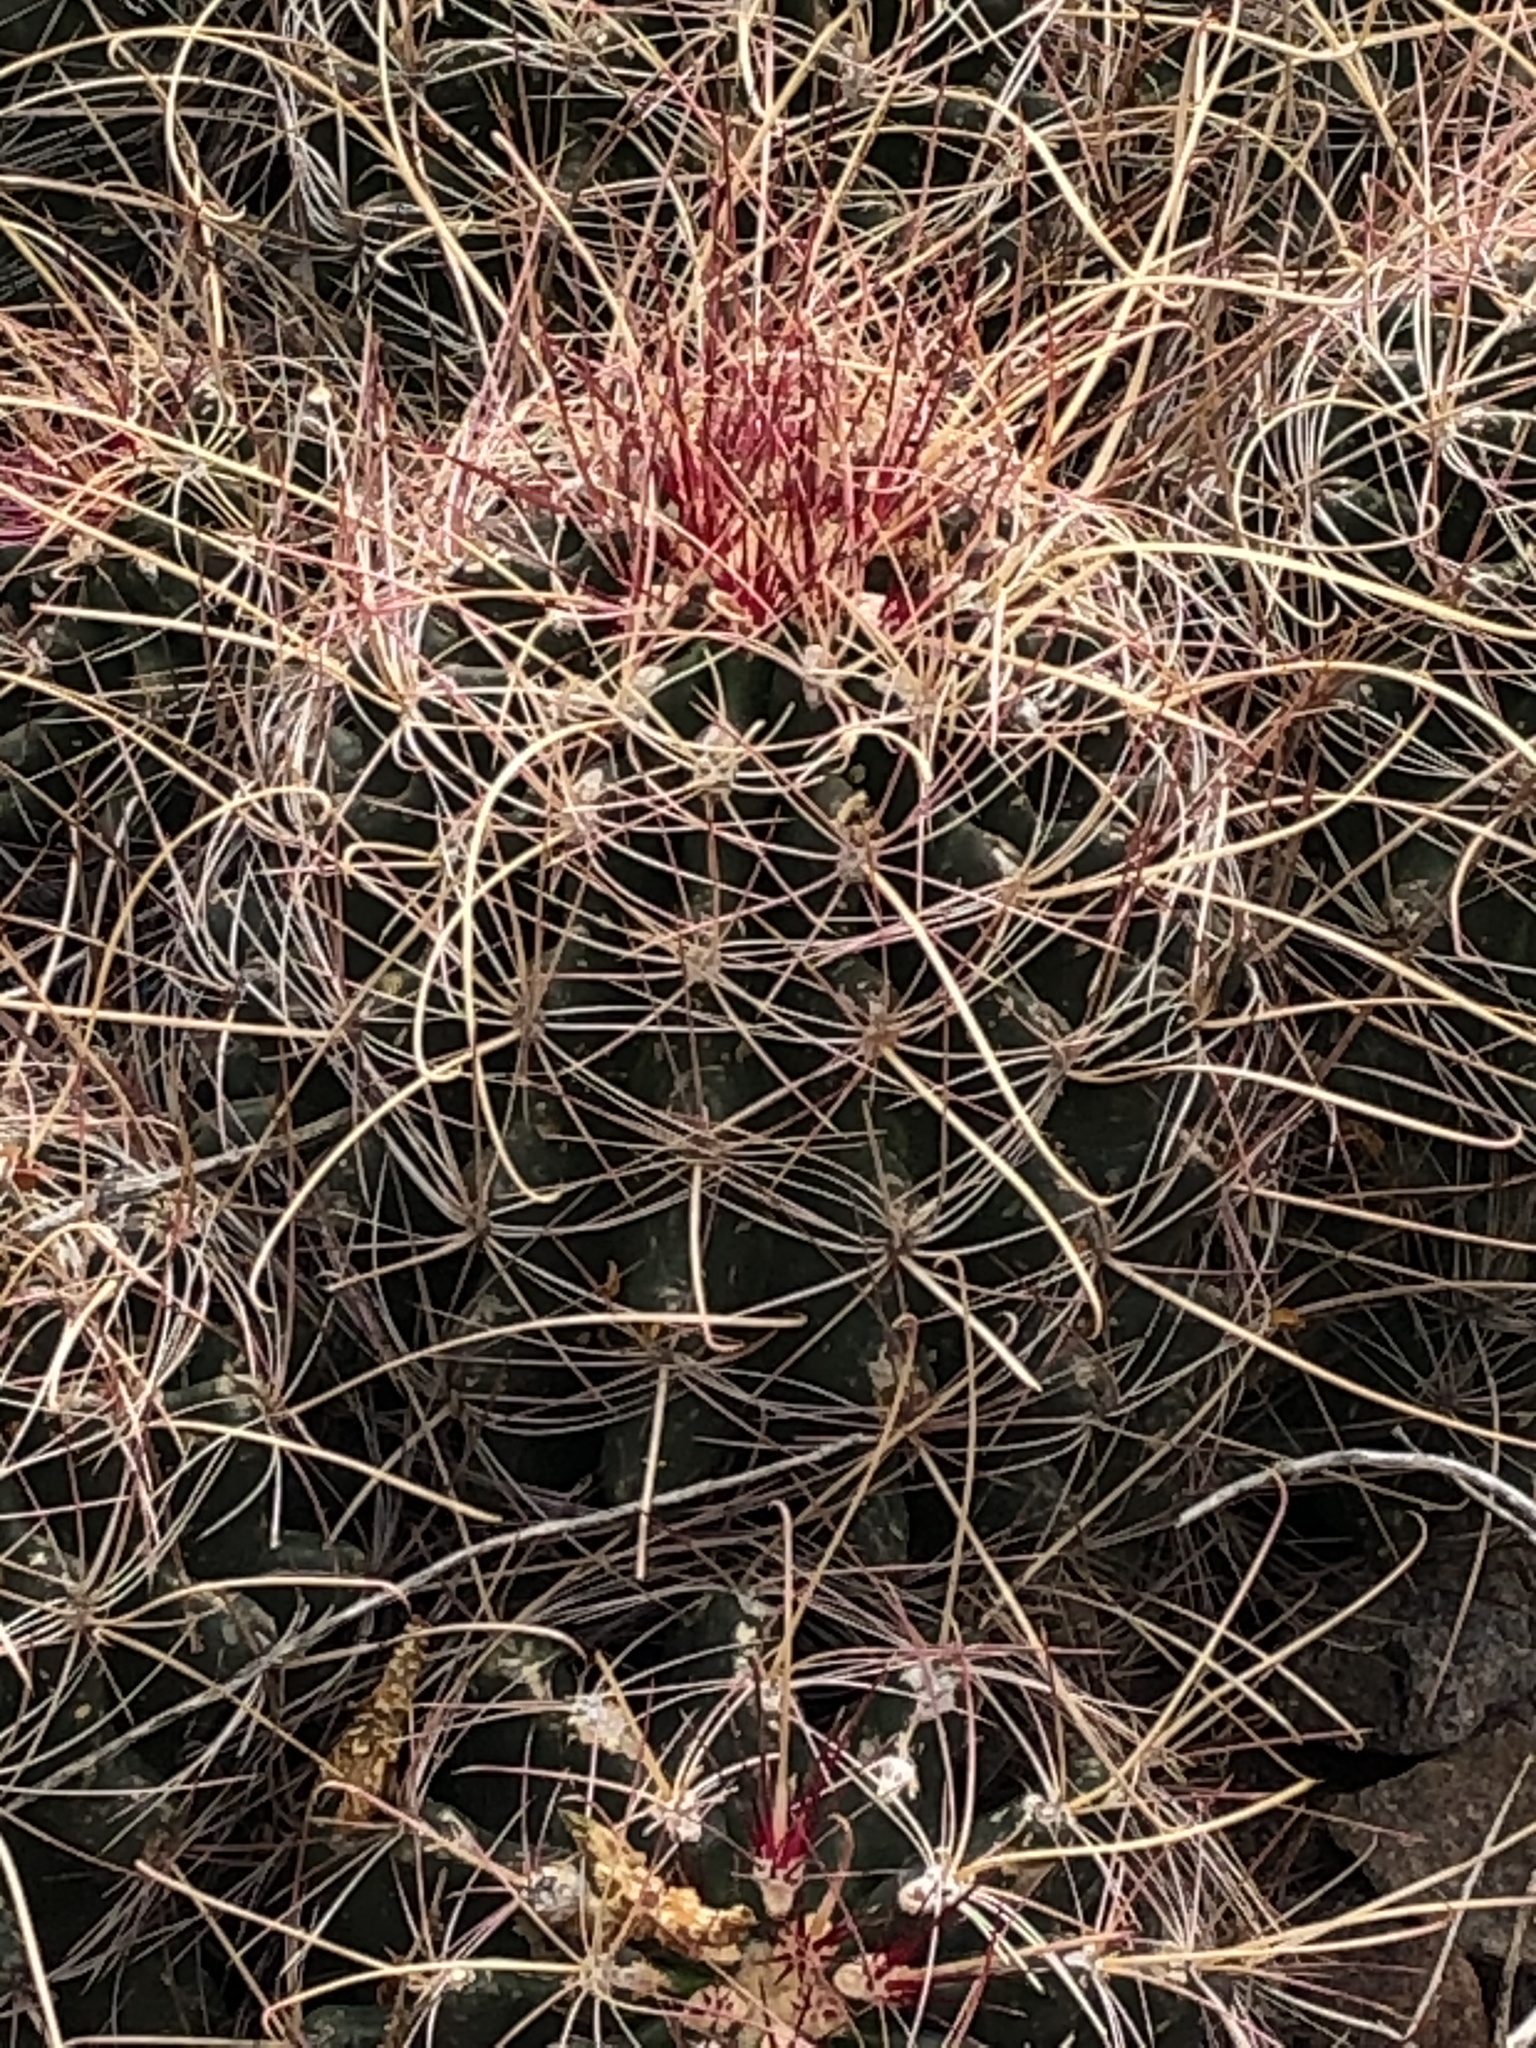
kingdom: Plantae
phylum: Tracheophyta
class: Magnoliopsida
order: Caryophyllales
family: Cactaceae
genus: Bisnaga
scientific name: Bisnaga hamatacantha
